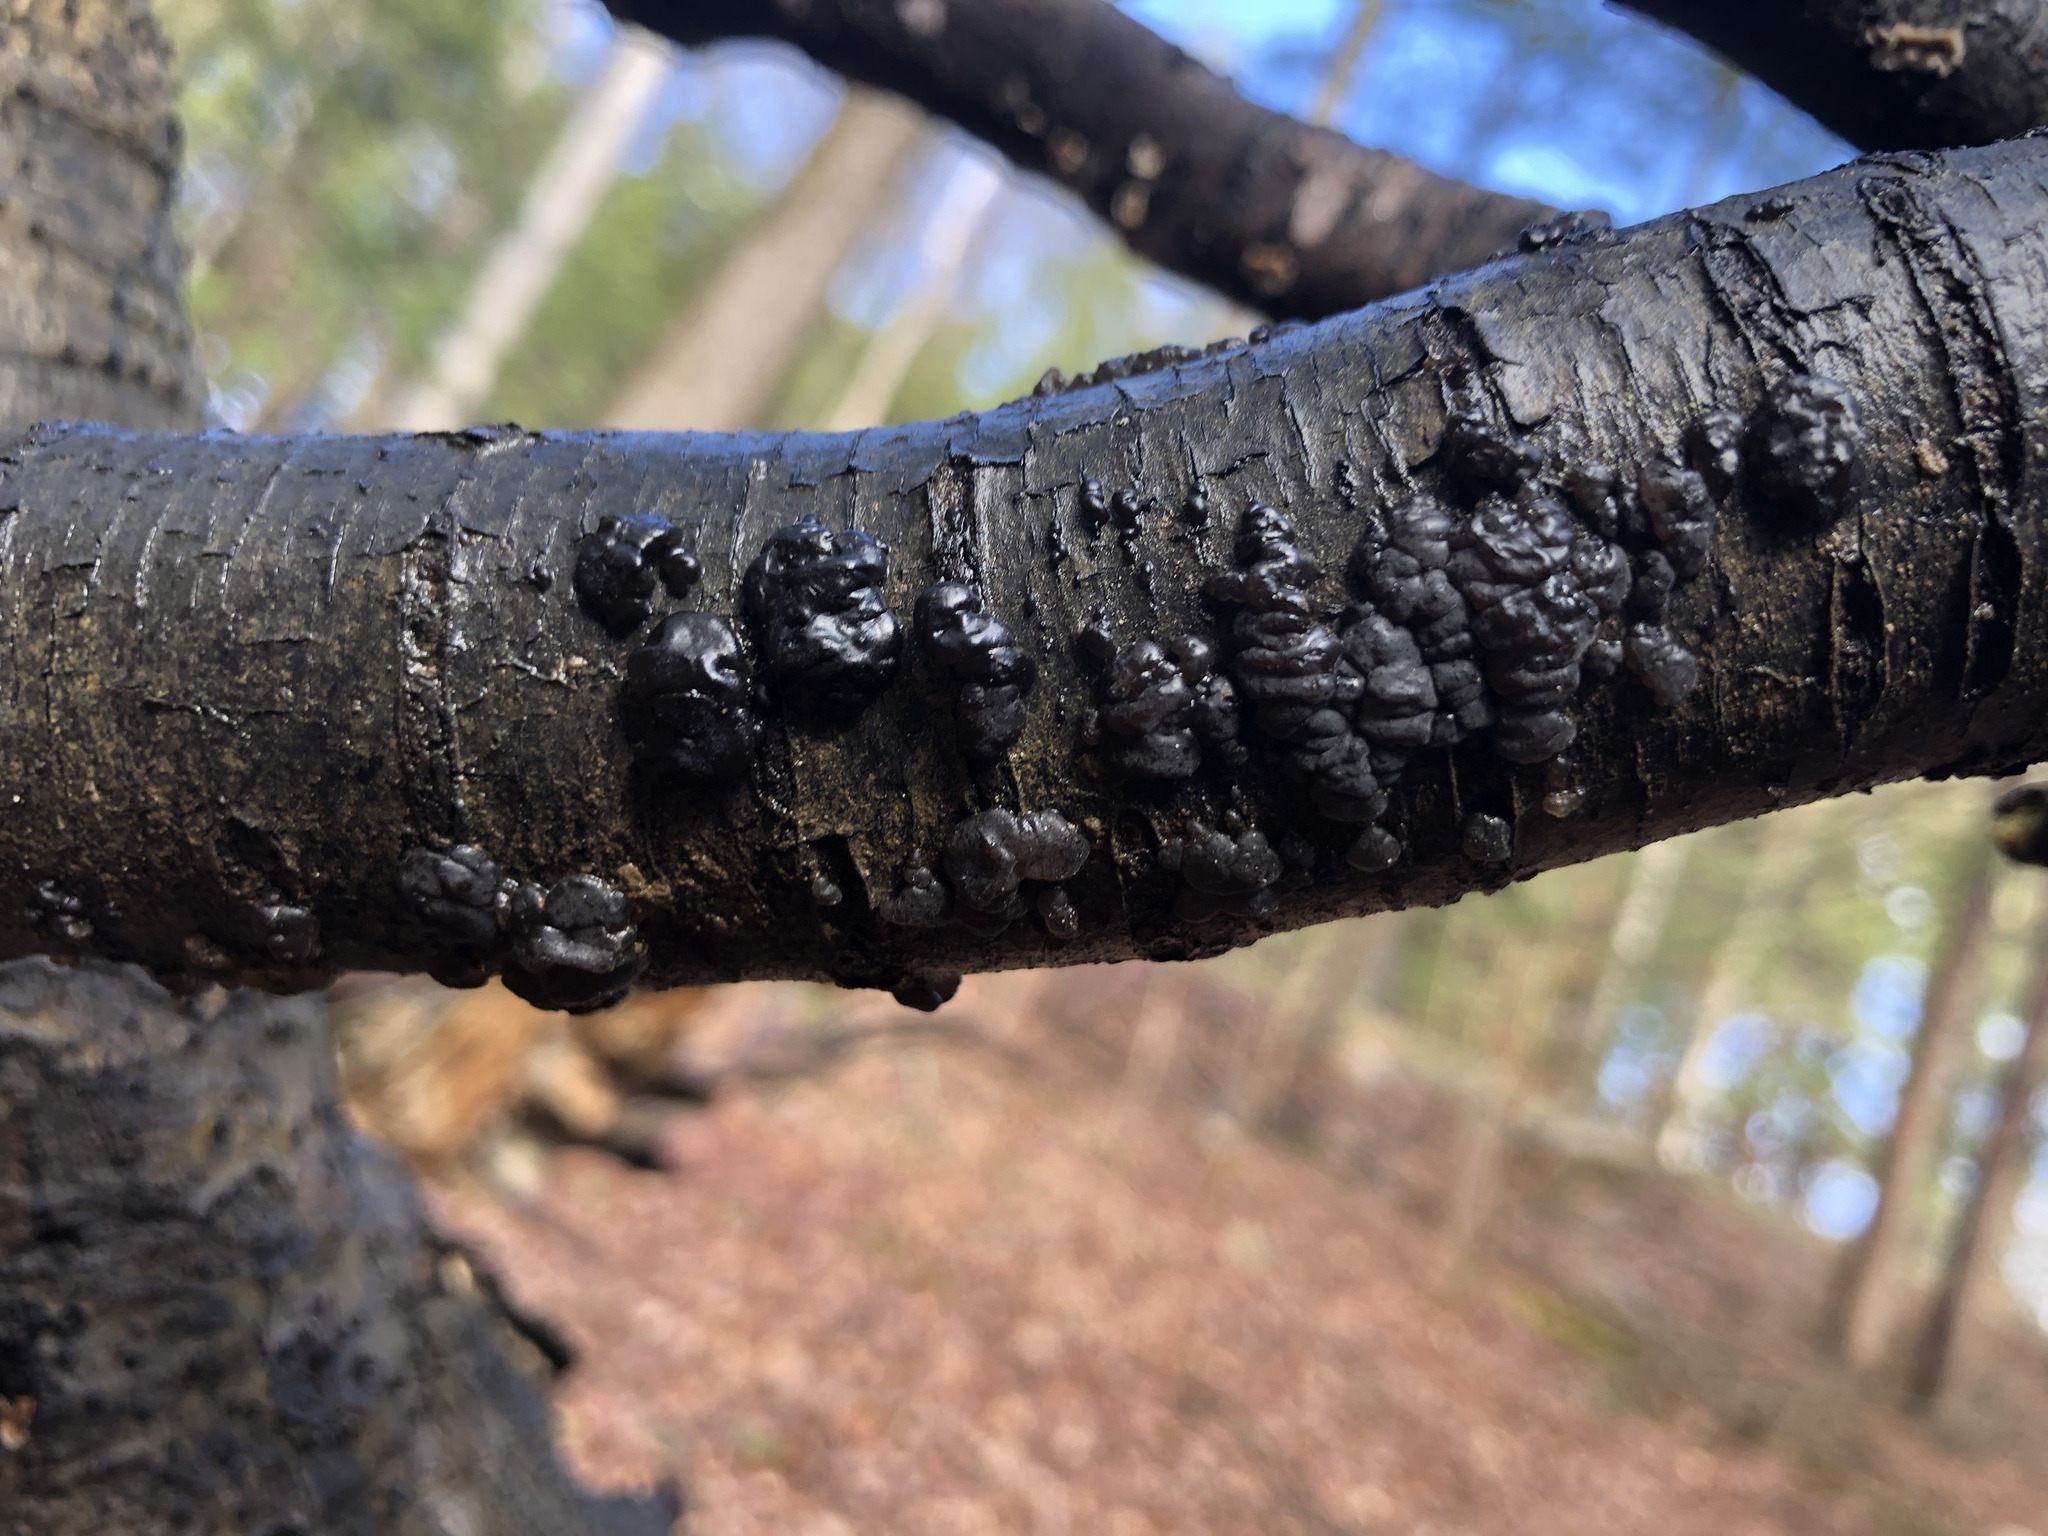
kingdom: Fungi
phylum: Basidiomycota
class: Agaricomycetes
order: Auriculariales
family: Auriculariaceae
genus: Exidia
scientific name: Exidia glandulosa
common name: Witches' butter
